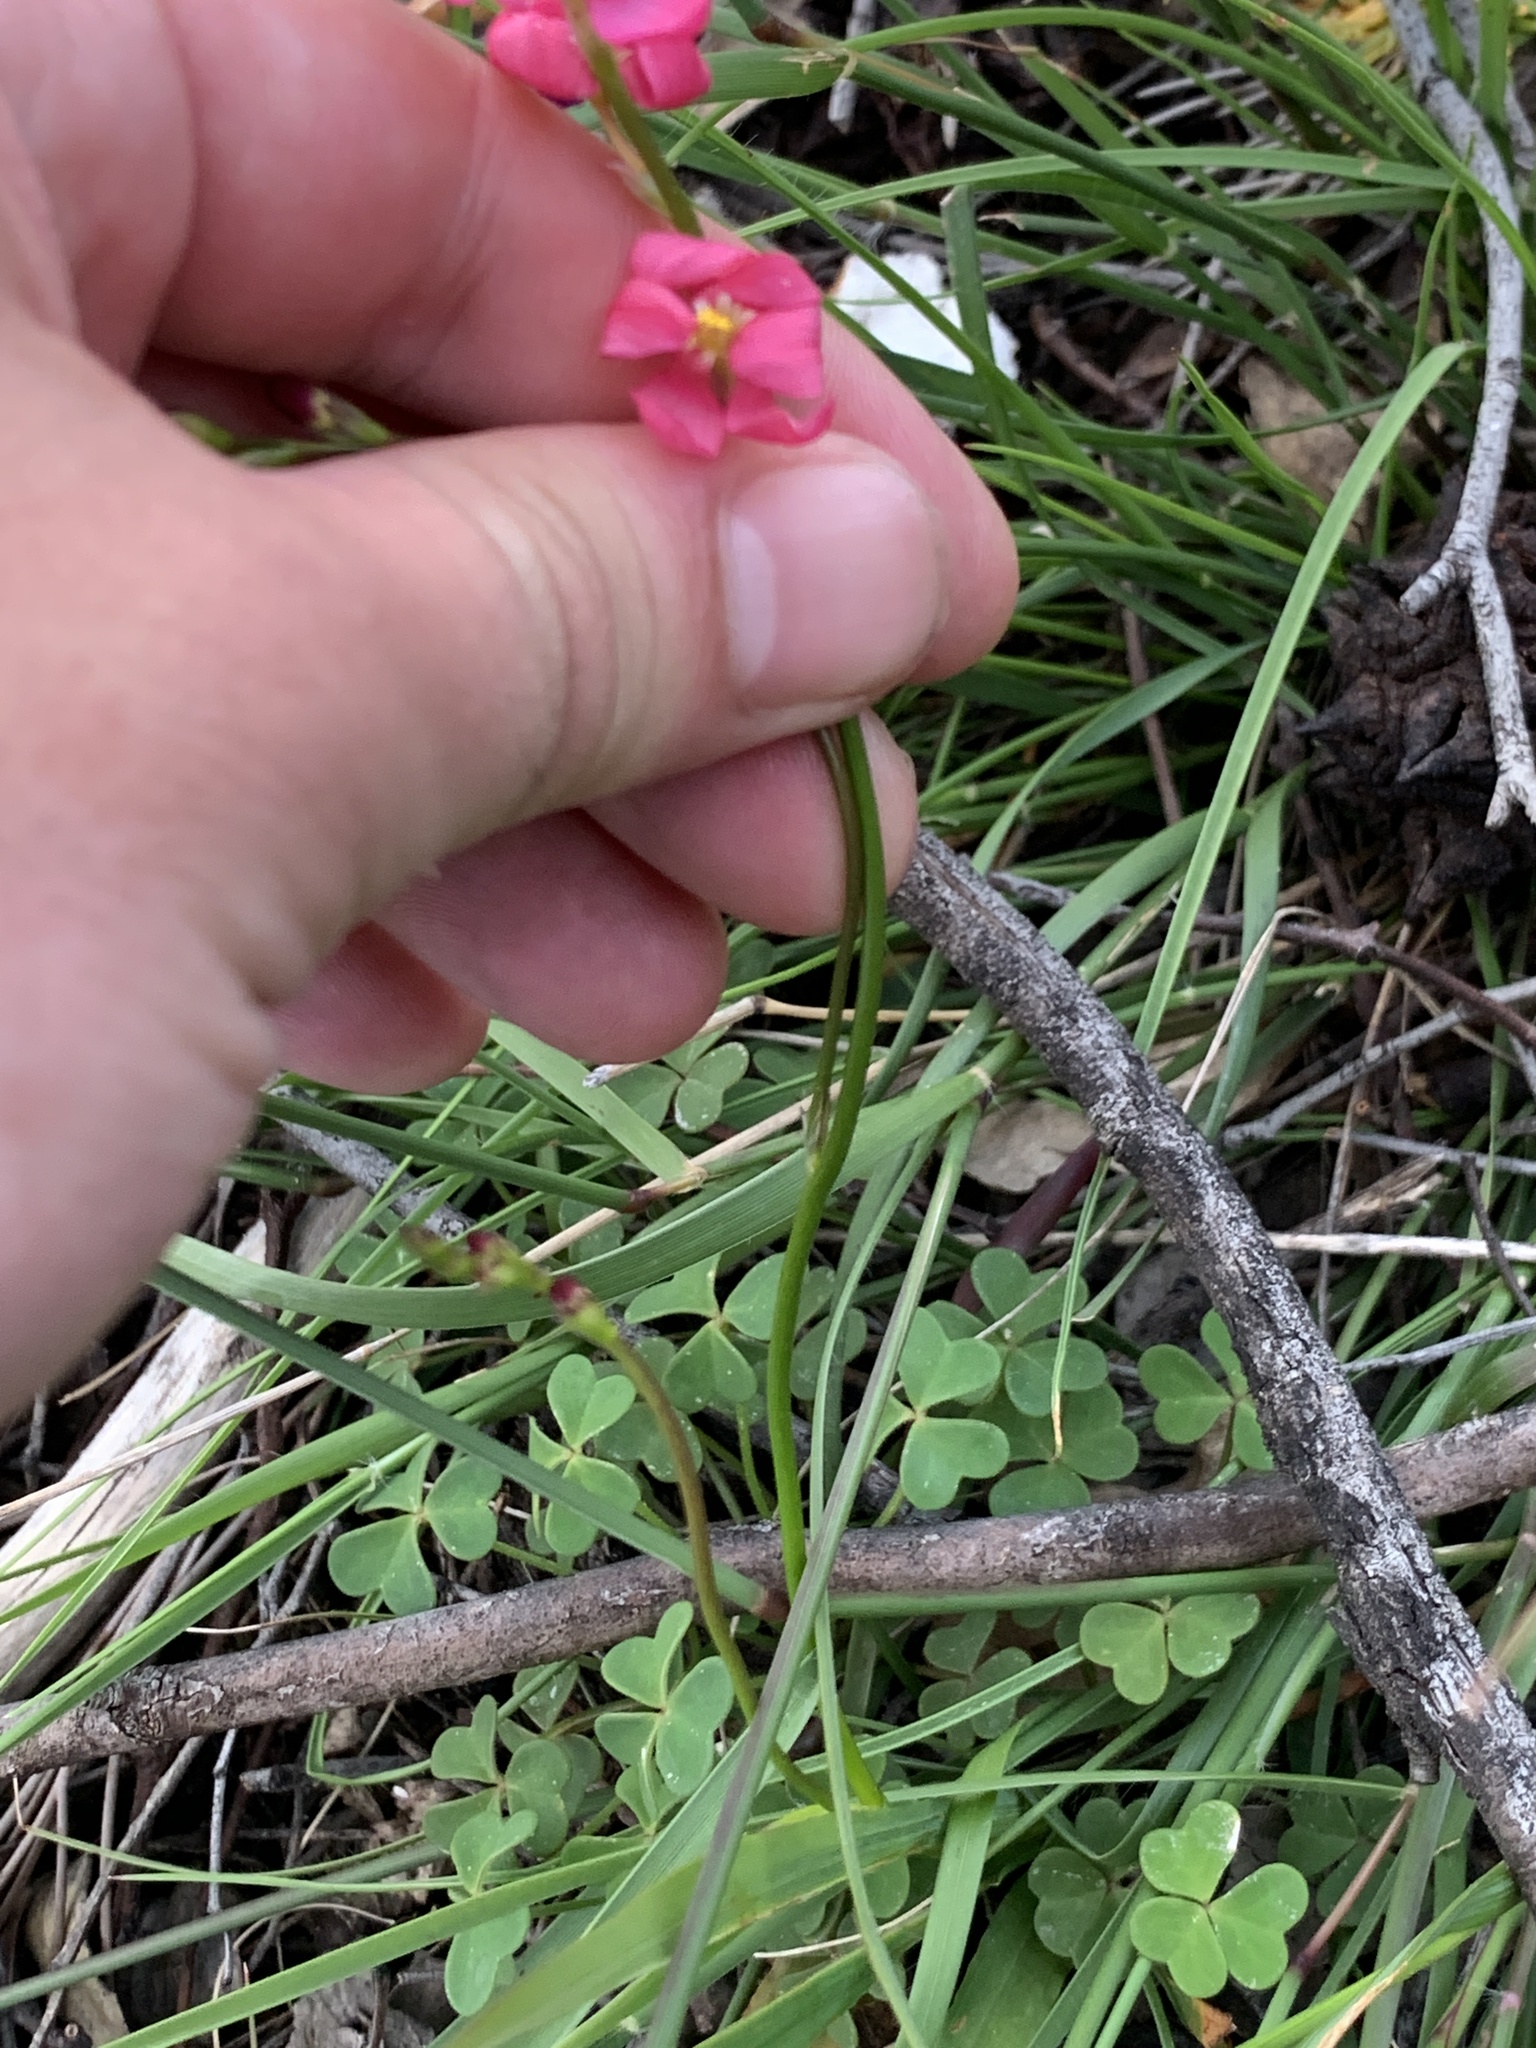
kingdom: Plantae
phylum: Tracheophyta
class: Liliopsida
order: Asparagales
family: Iridaceae
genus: Ixia
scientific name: Ixia scillaris
